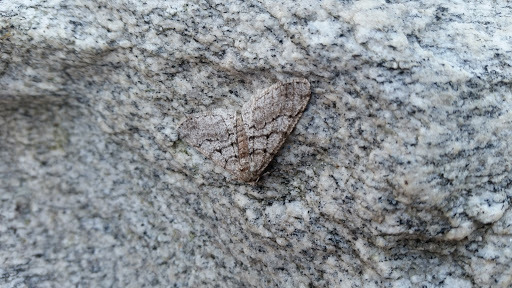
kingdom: Animalia
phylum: Arthropoda
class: Insecta
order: Lepidoptera
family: Geometridae
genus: Phigalia
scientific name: Phigalia titea
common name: Spiny looper
